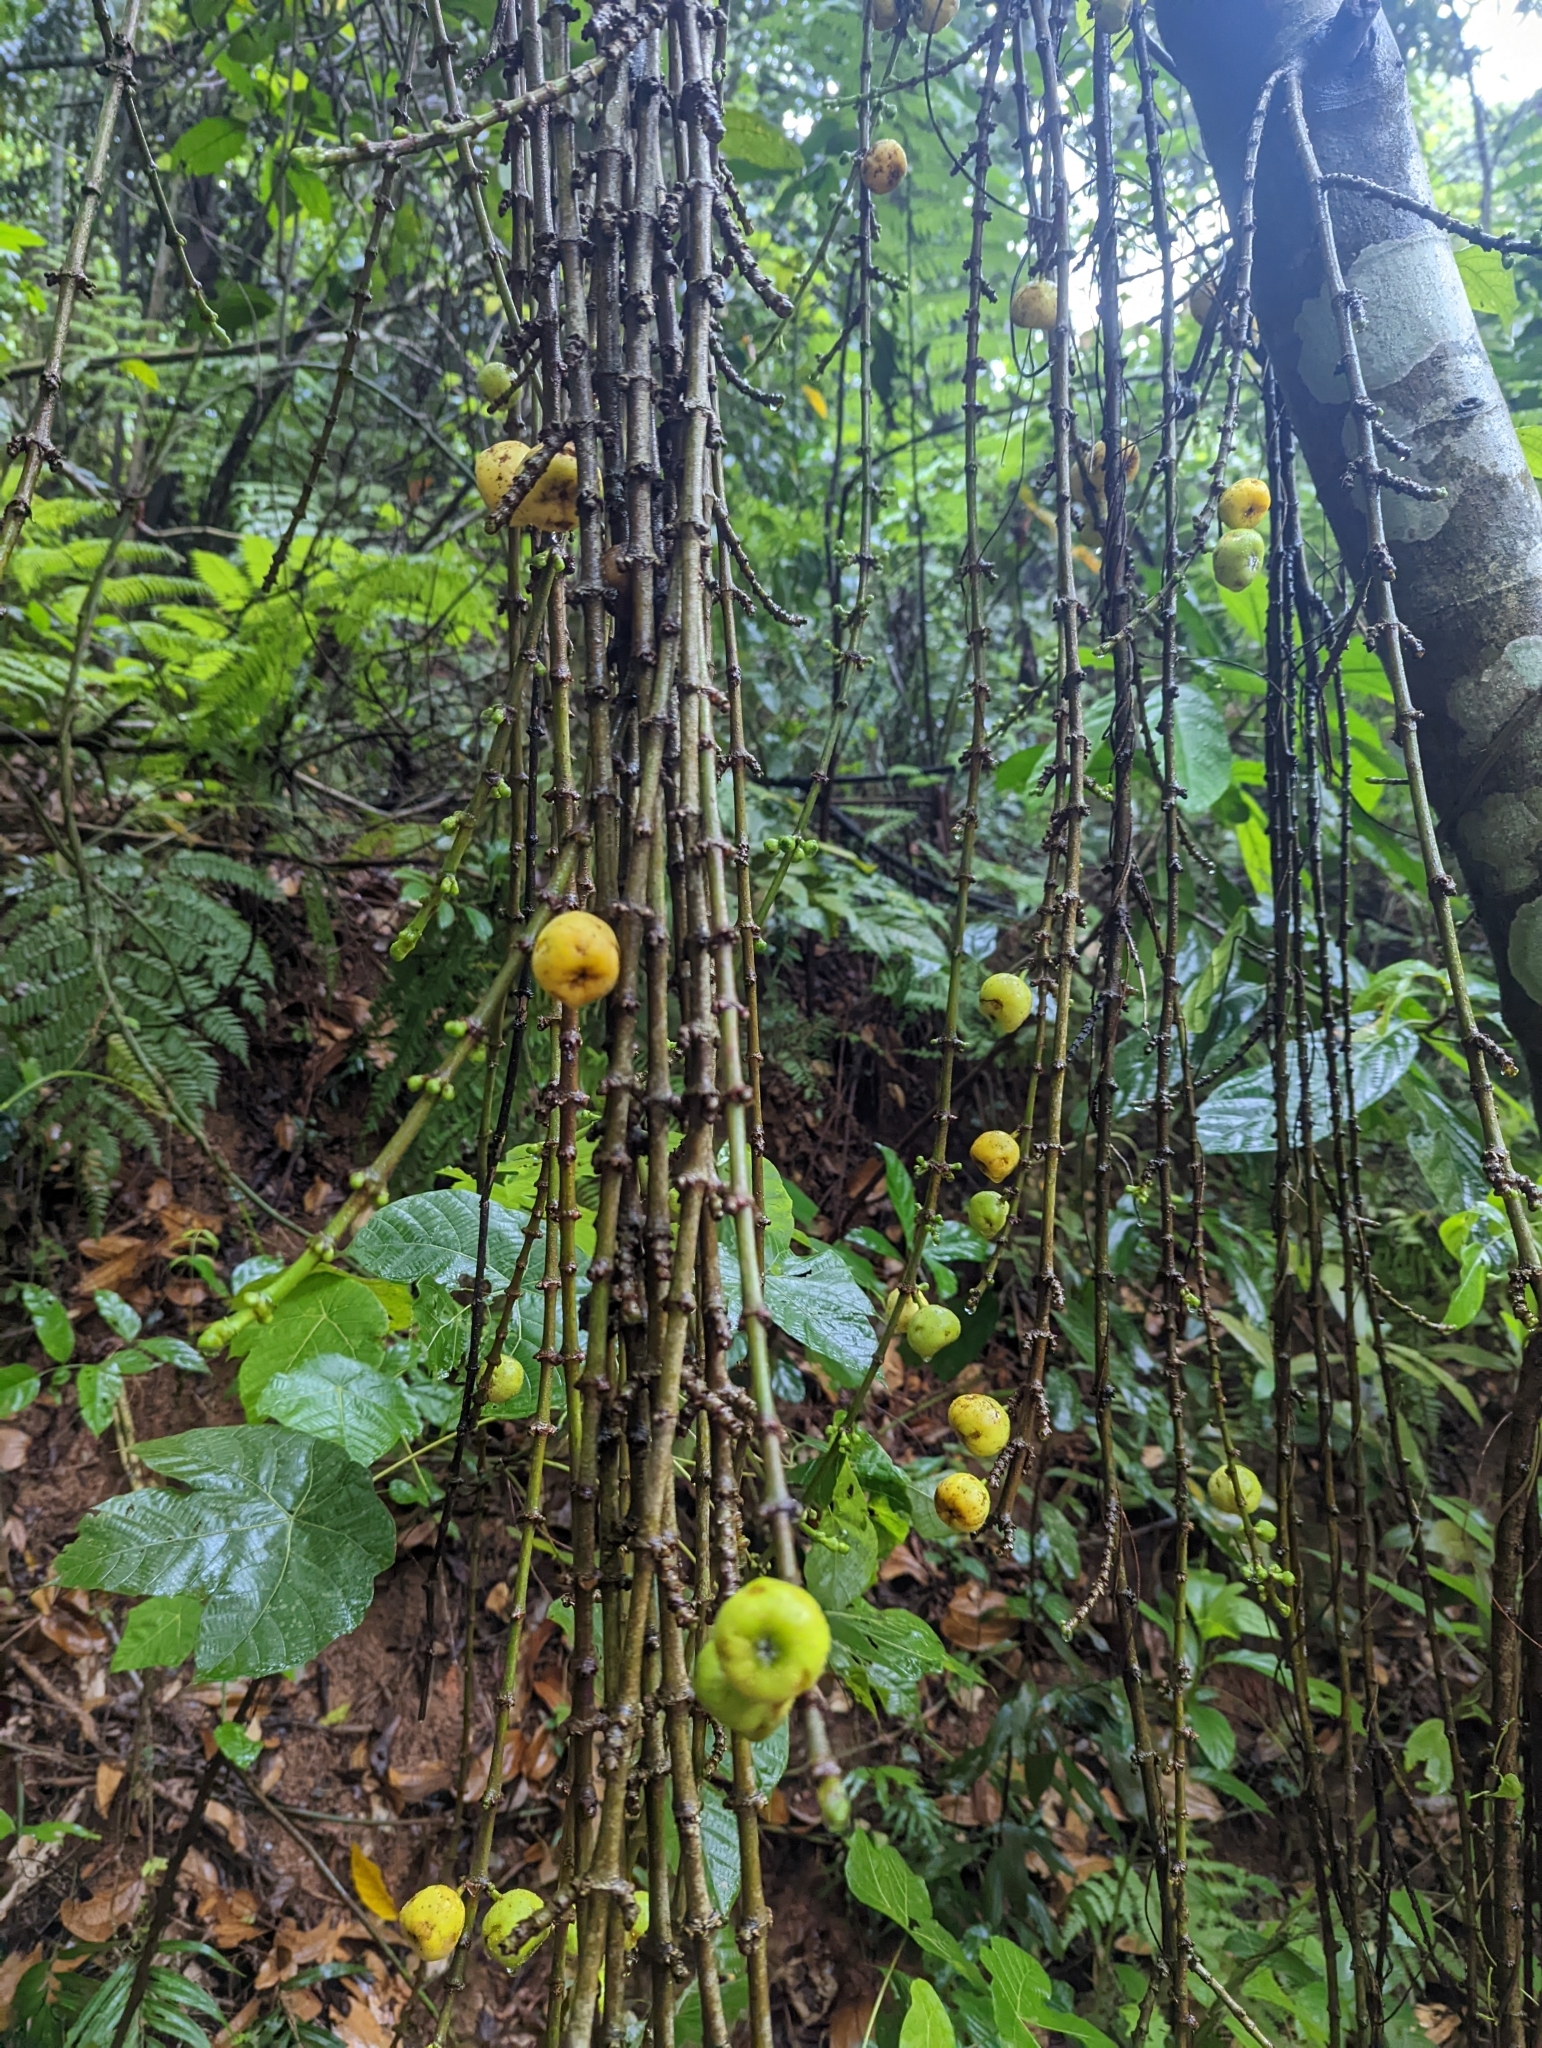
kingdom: Plantae
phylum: Tracheophyta
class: Magnoliopsida
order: Rosales
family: Moraceae
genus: Ficus
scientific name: Ficus hispida
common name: Hairy fig
